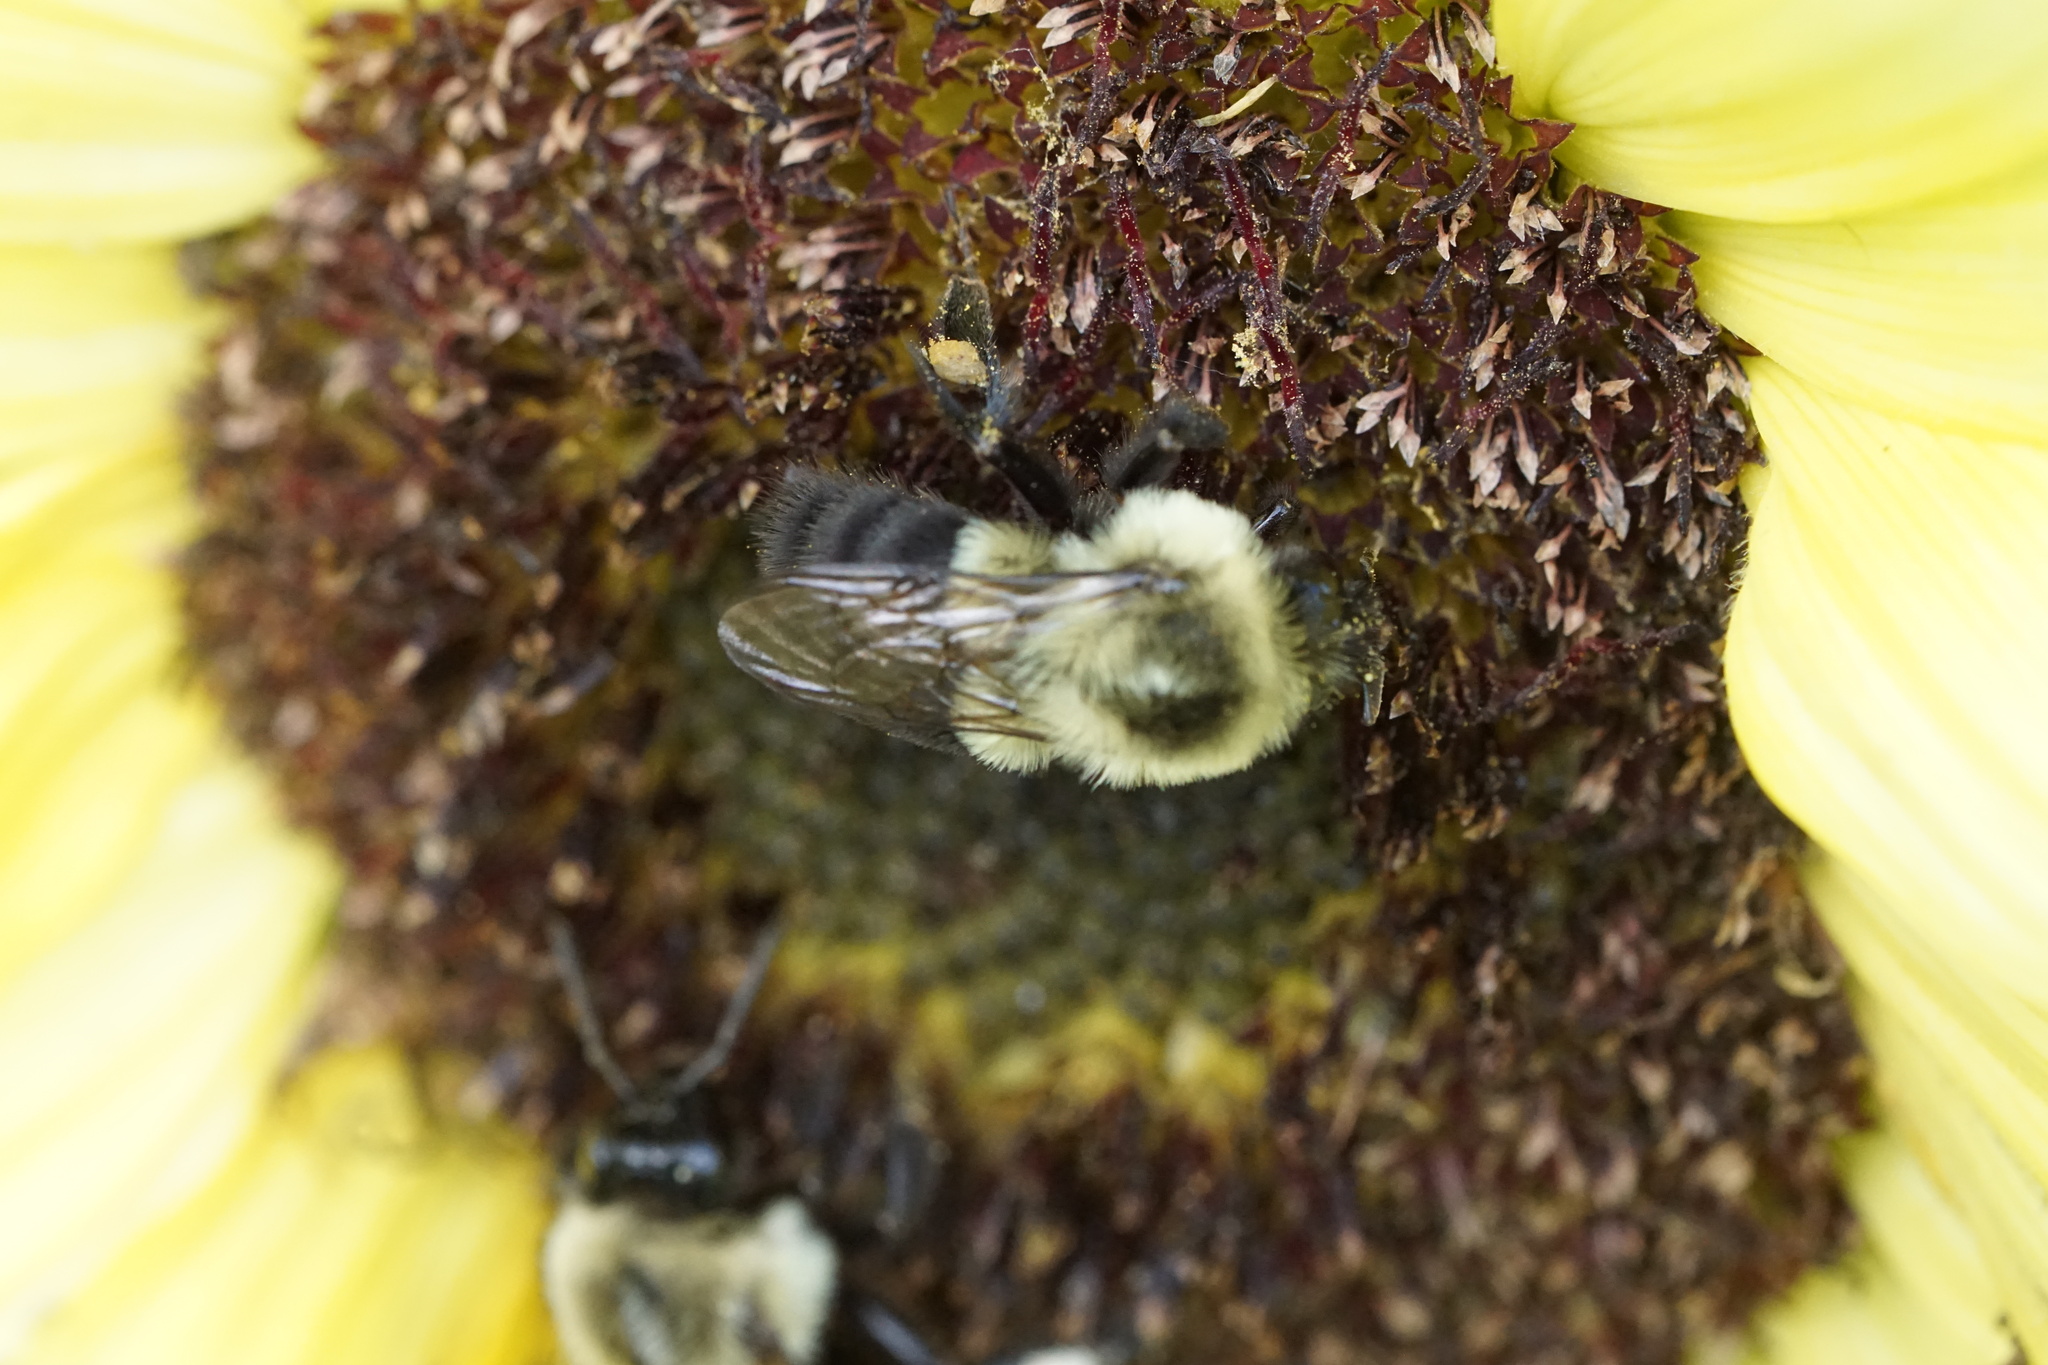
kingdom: Animalia
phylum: Arthropoda
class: Insecta
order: Hymenoptera
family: Apidae
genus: Bombus
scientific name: Bombus impatiens
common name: Common eastern bumble bee
